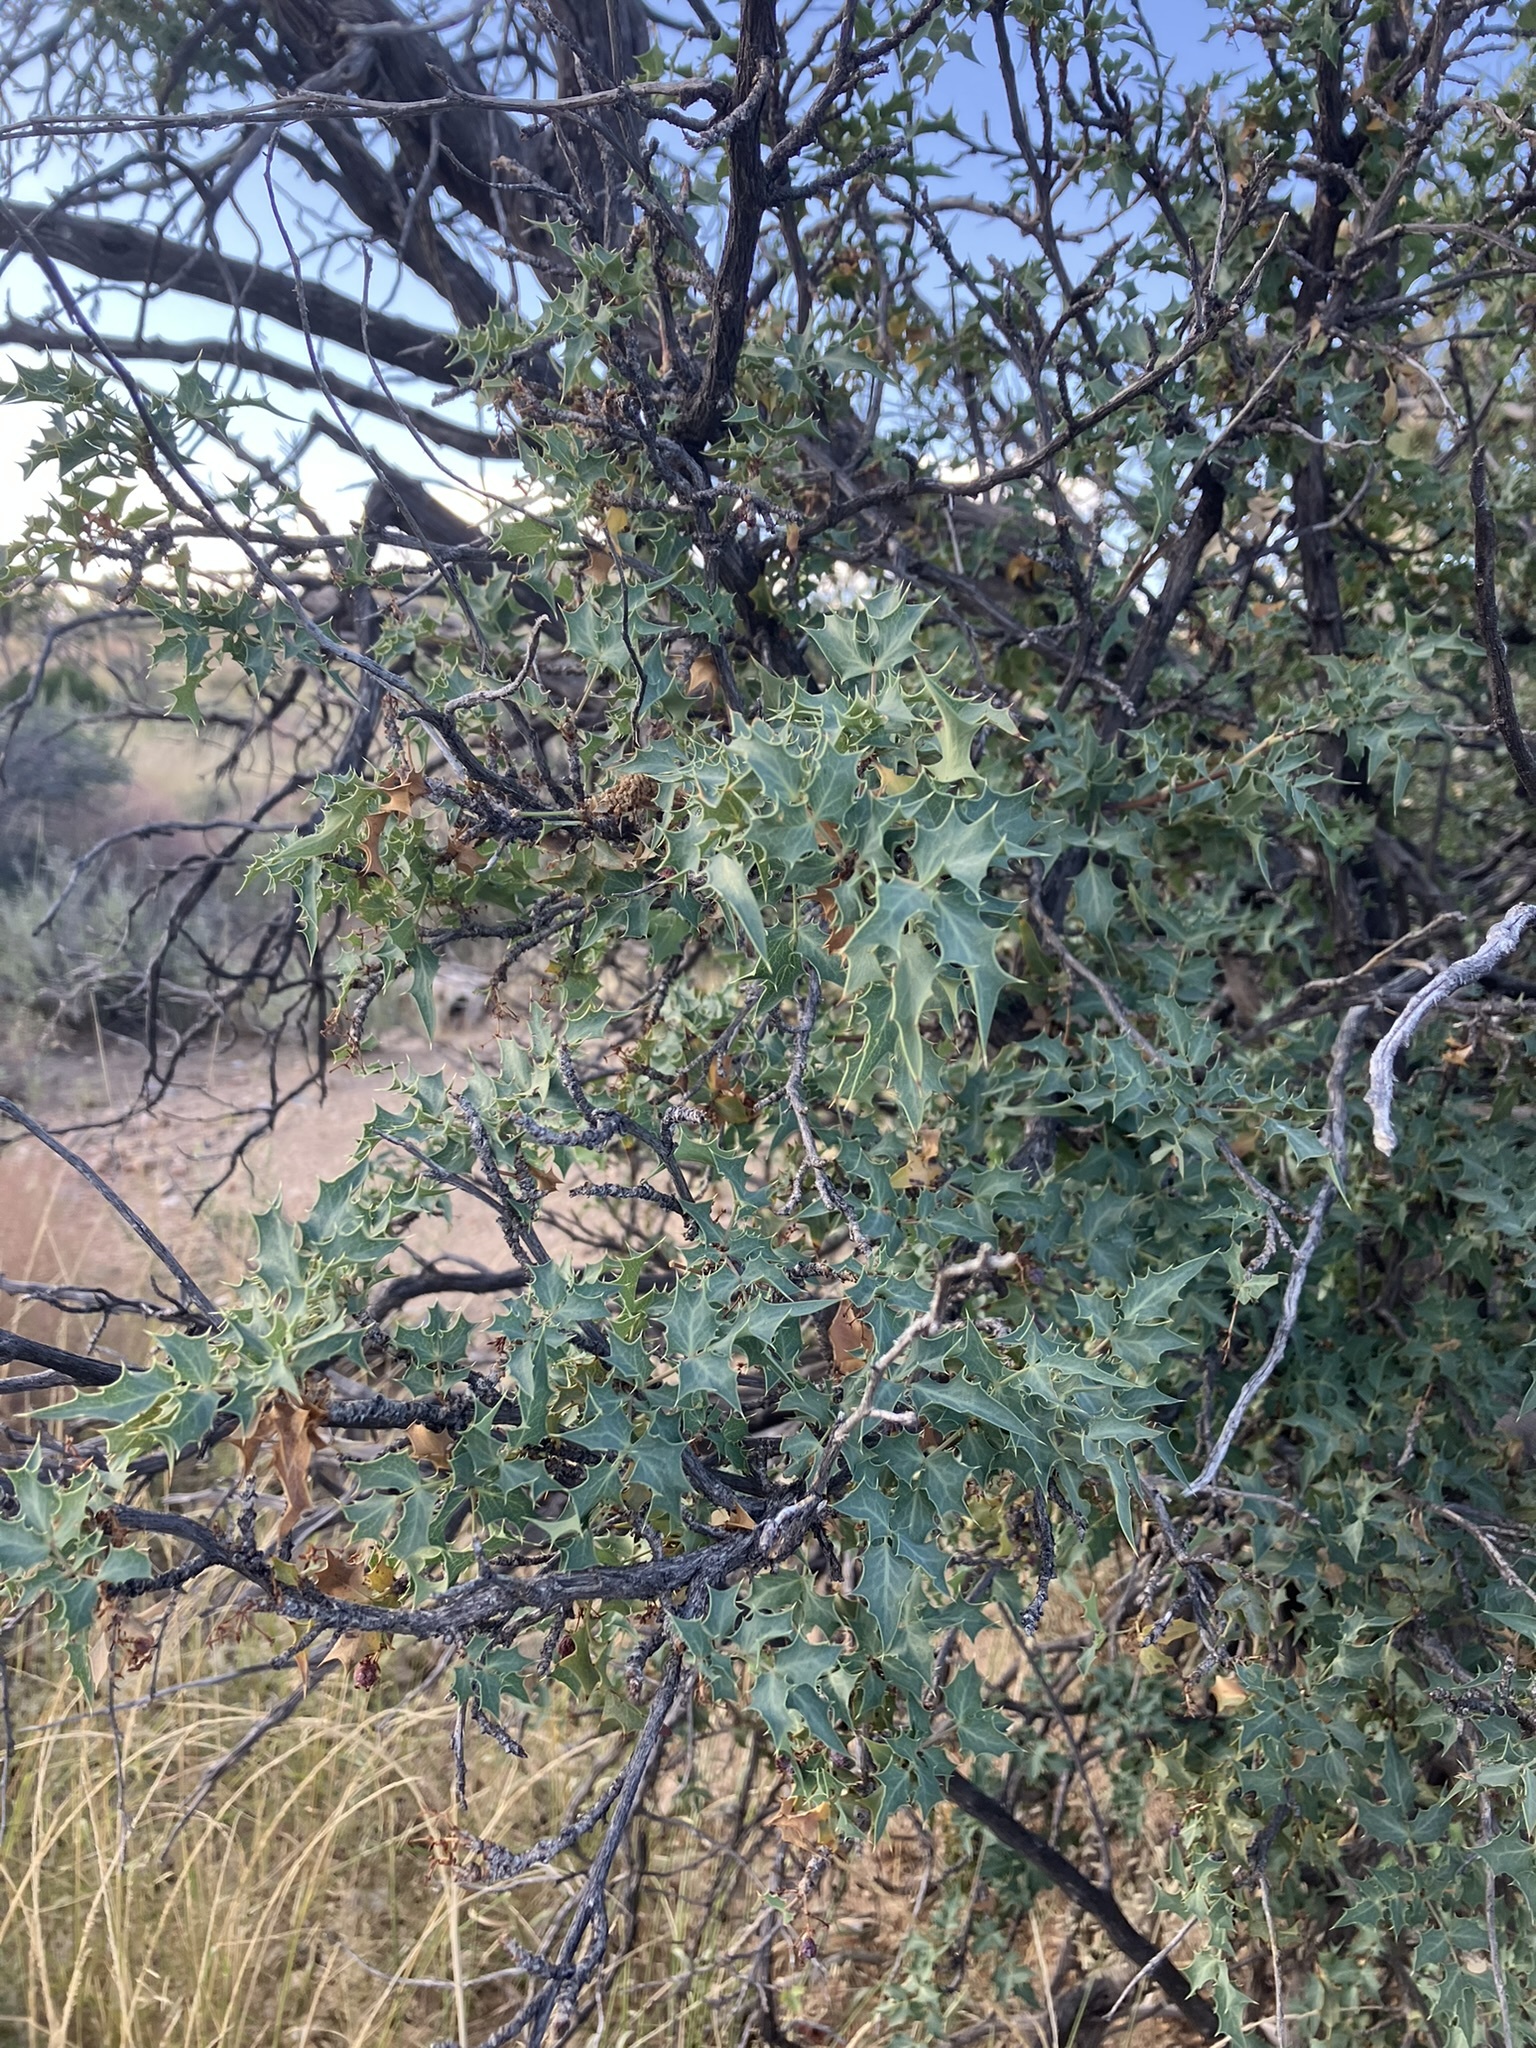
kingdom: Plantae
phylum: Tracheophyta
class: Magnoliopsida
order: Ranunculales
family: Berberidaceae
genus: Alloberberis
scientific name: Alloberberis fremontii
